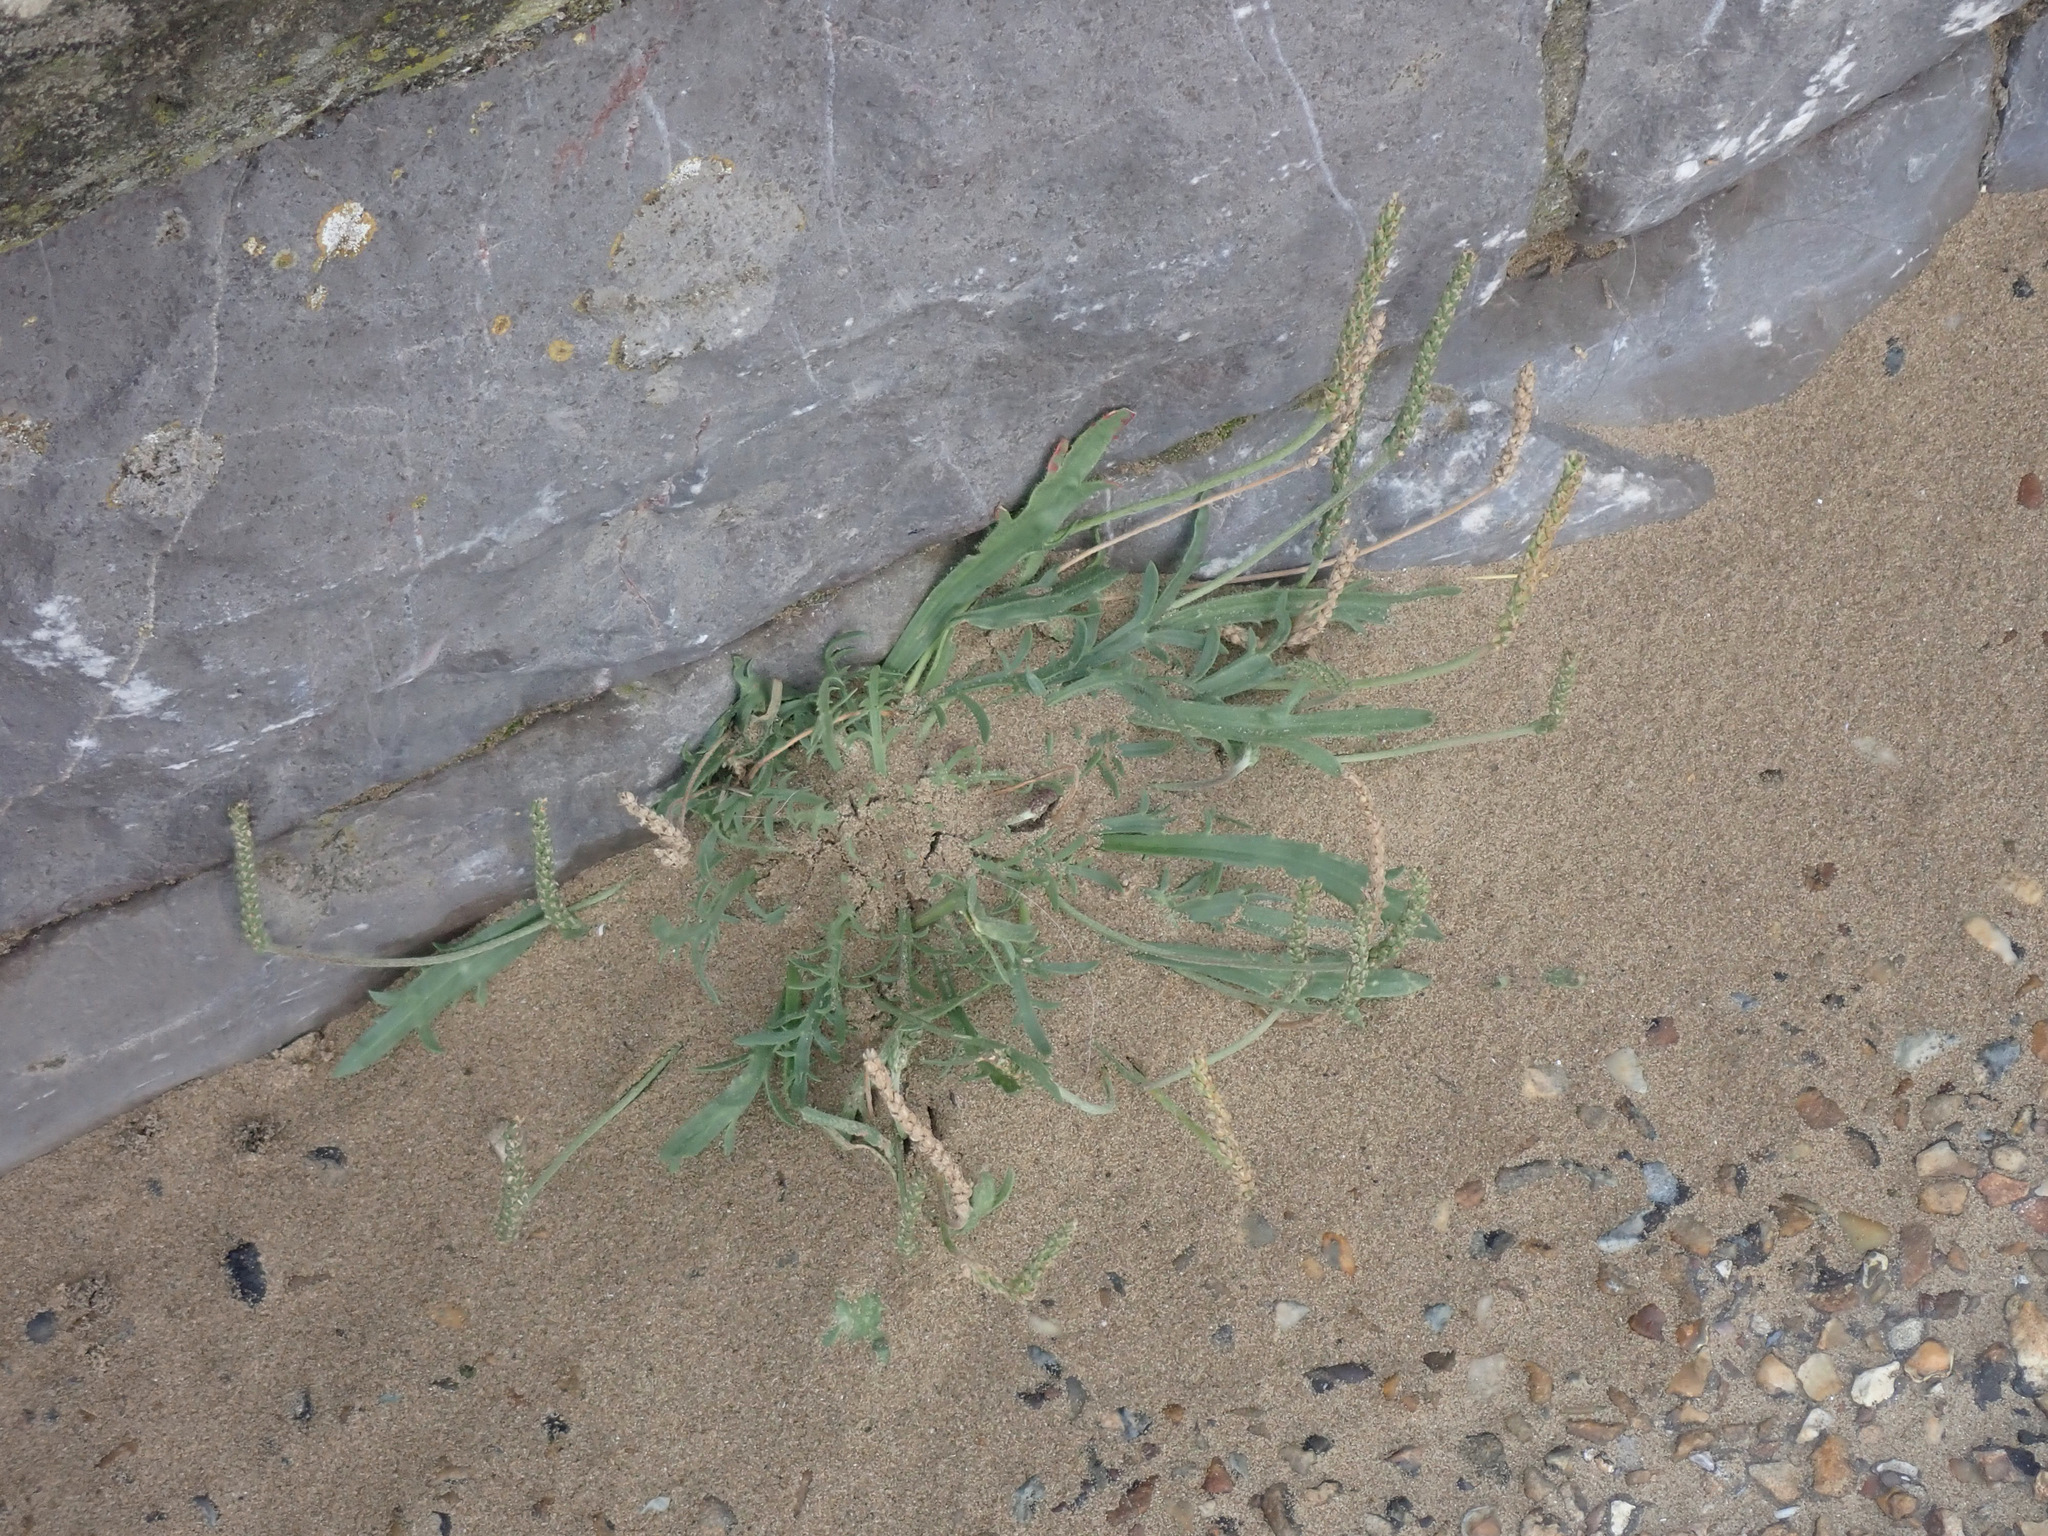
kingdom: Plantae
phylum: Tracheophyta
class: Magnoliopsida
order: Lamiales
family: Plantaginaceae
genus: Plantago
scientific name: Plantago coronopus
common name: Buck's-horn plantain
